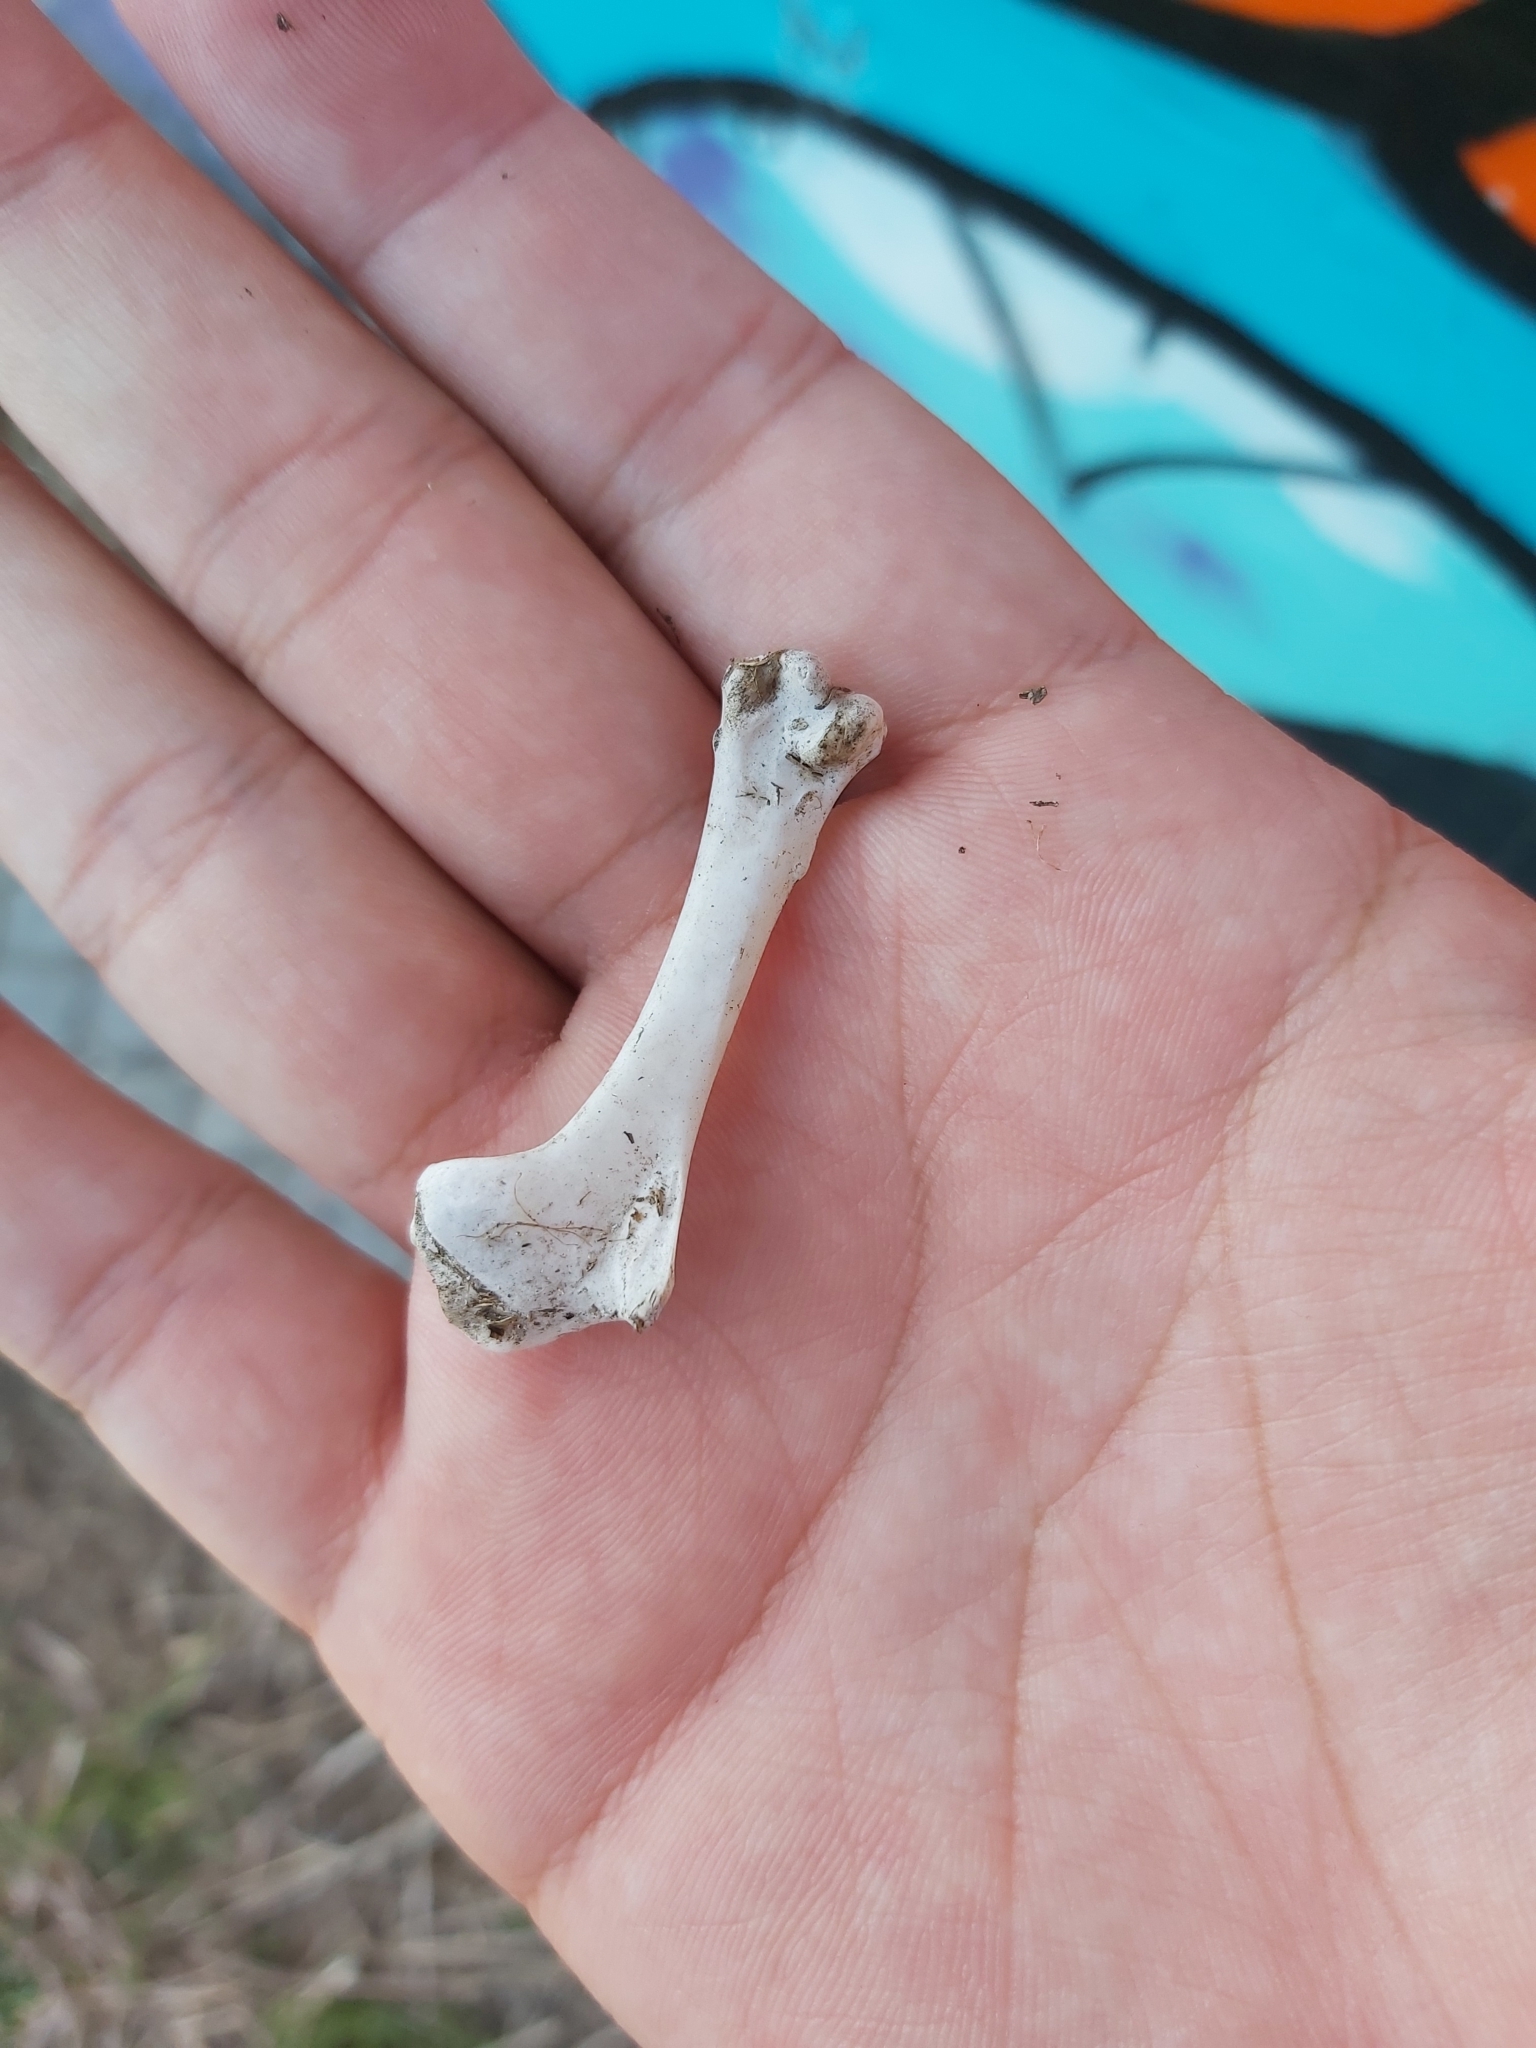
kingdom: Animalia
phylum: Chordata
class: Aves
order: Columbiformes
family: Columbidae
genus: Columba
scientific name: Columba livia
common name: Rock pigeon
